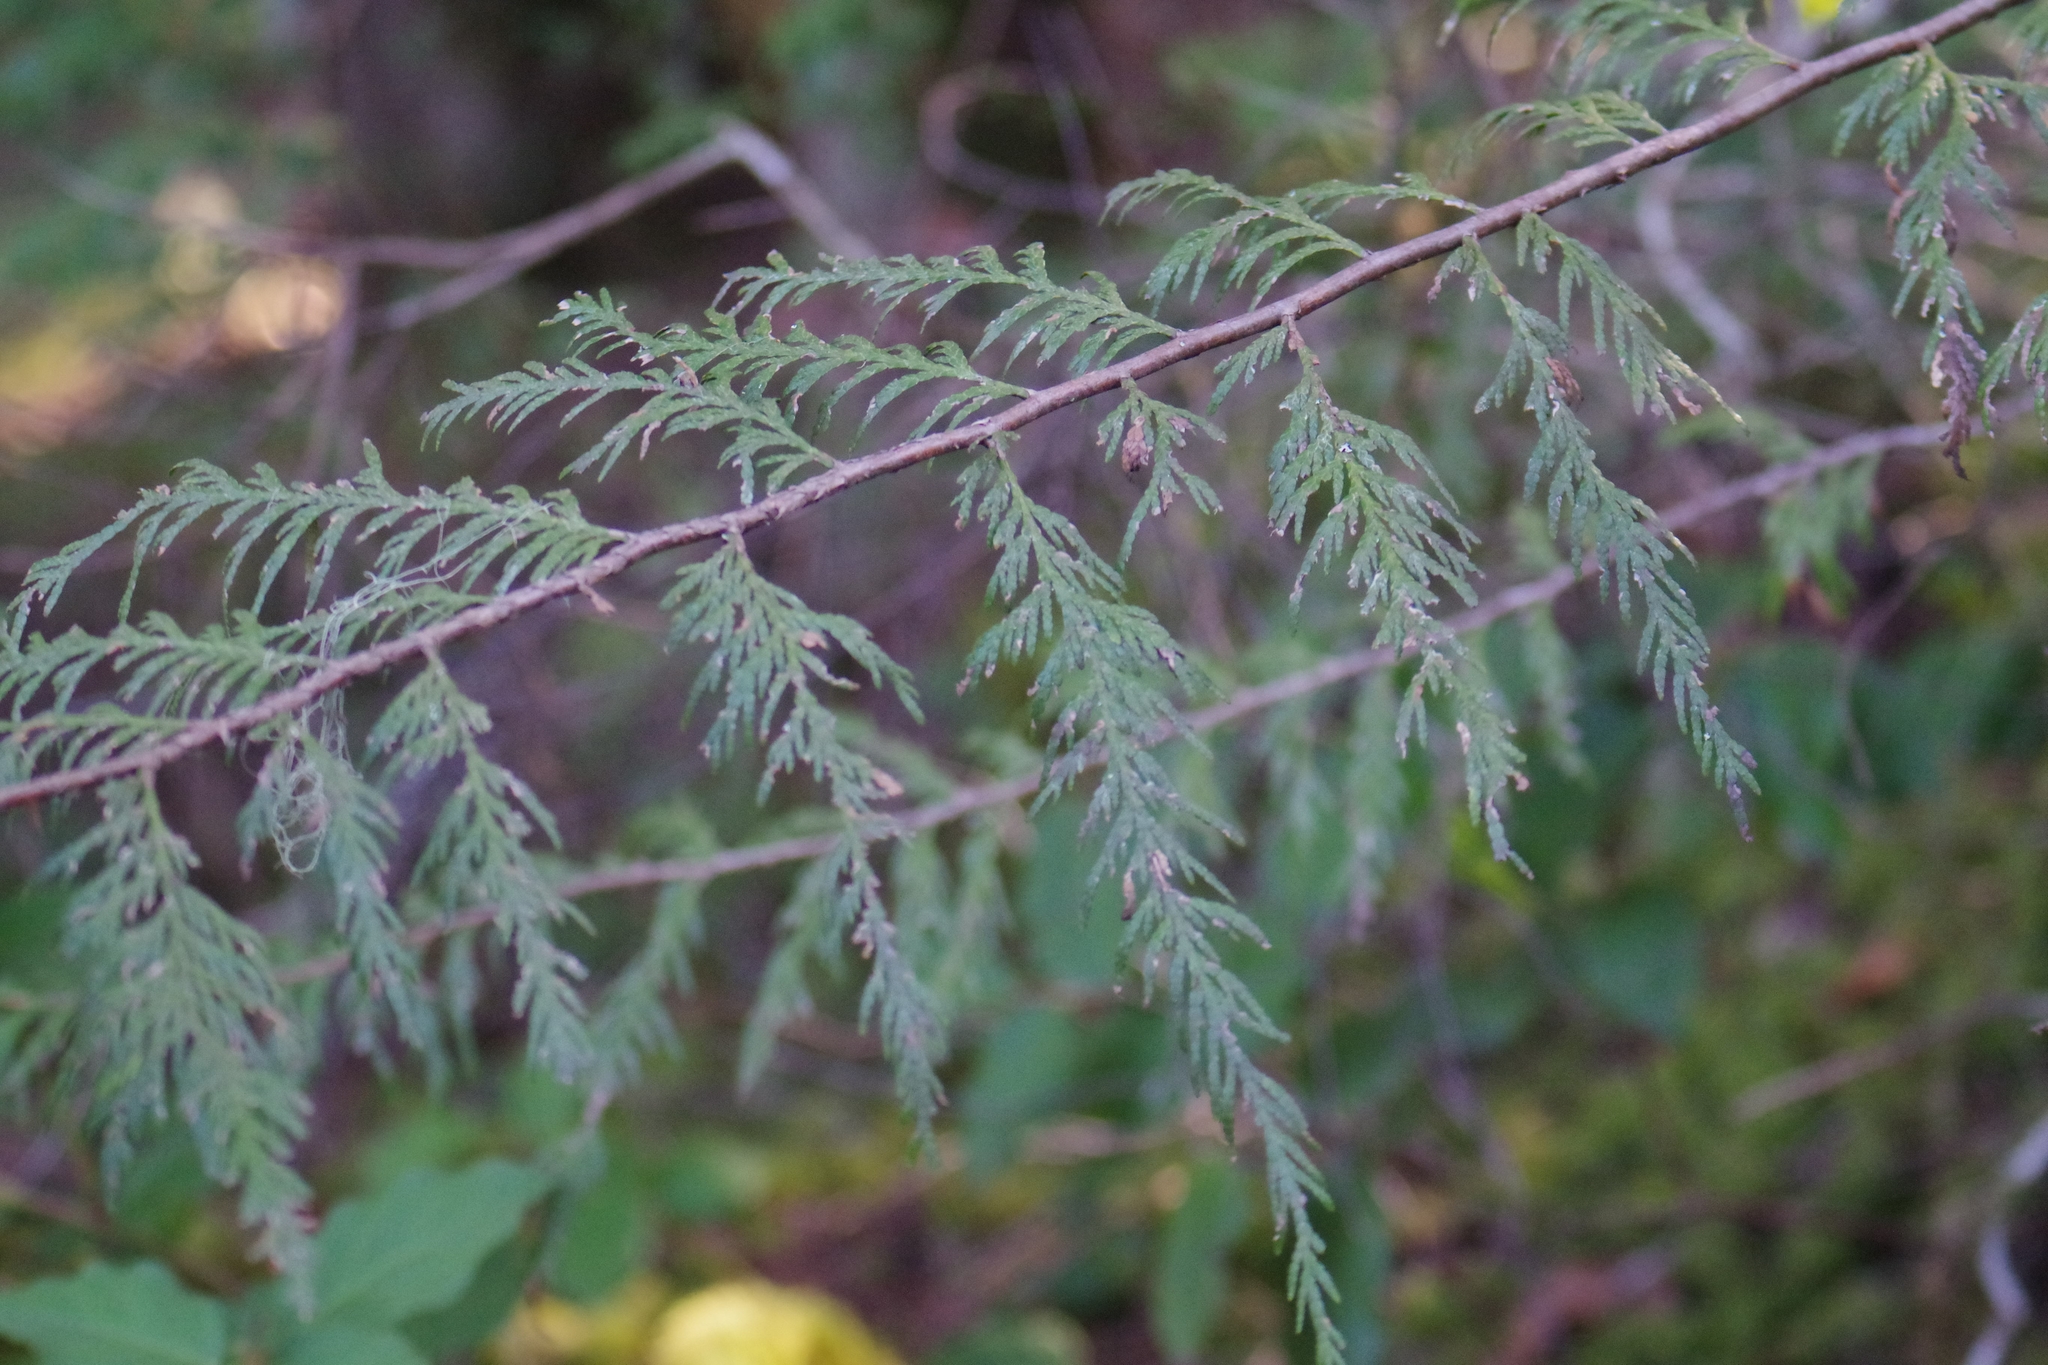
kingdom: Plantae
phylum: Tracheophyta
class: Pinopsida
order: Pinales
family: Cupressaceae
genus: Thuja
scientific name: Thuja plicata
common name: Western red-cedar
